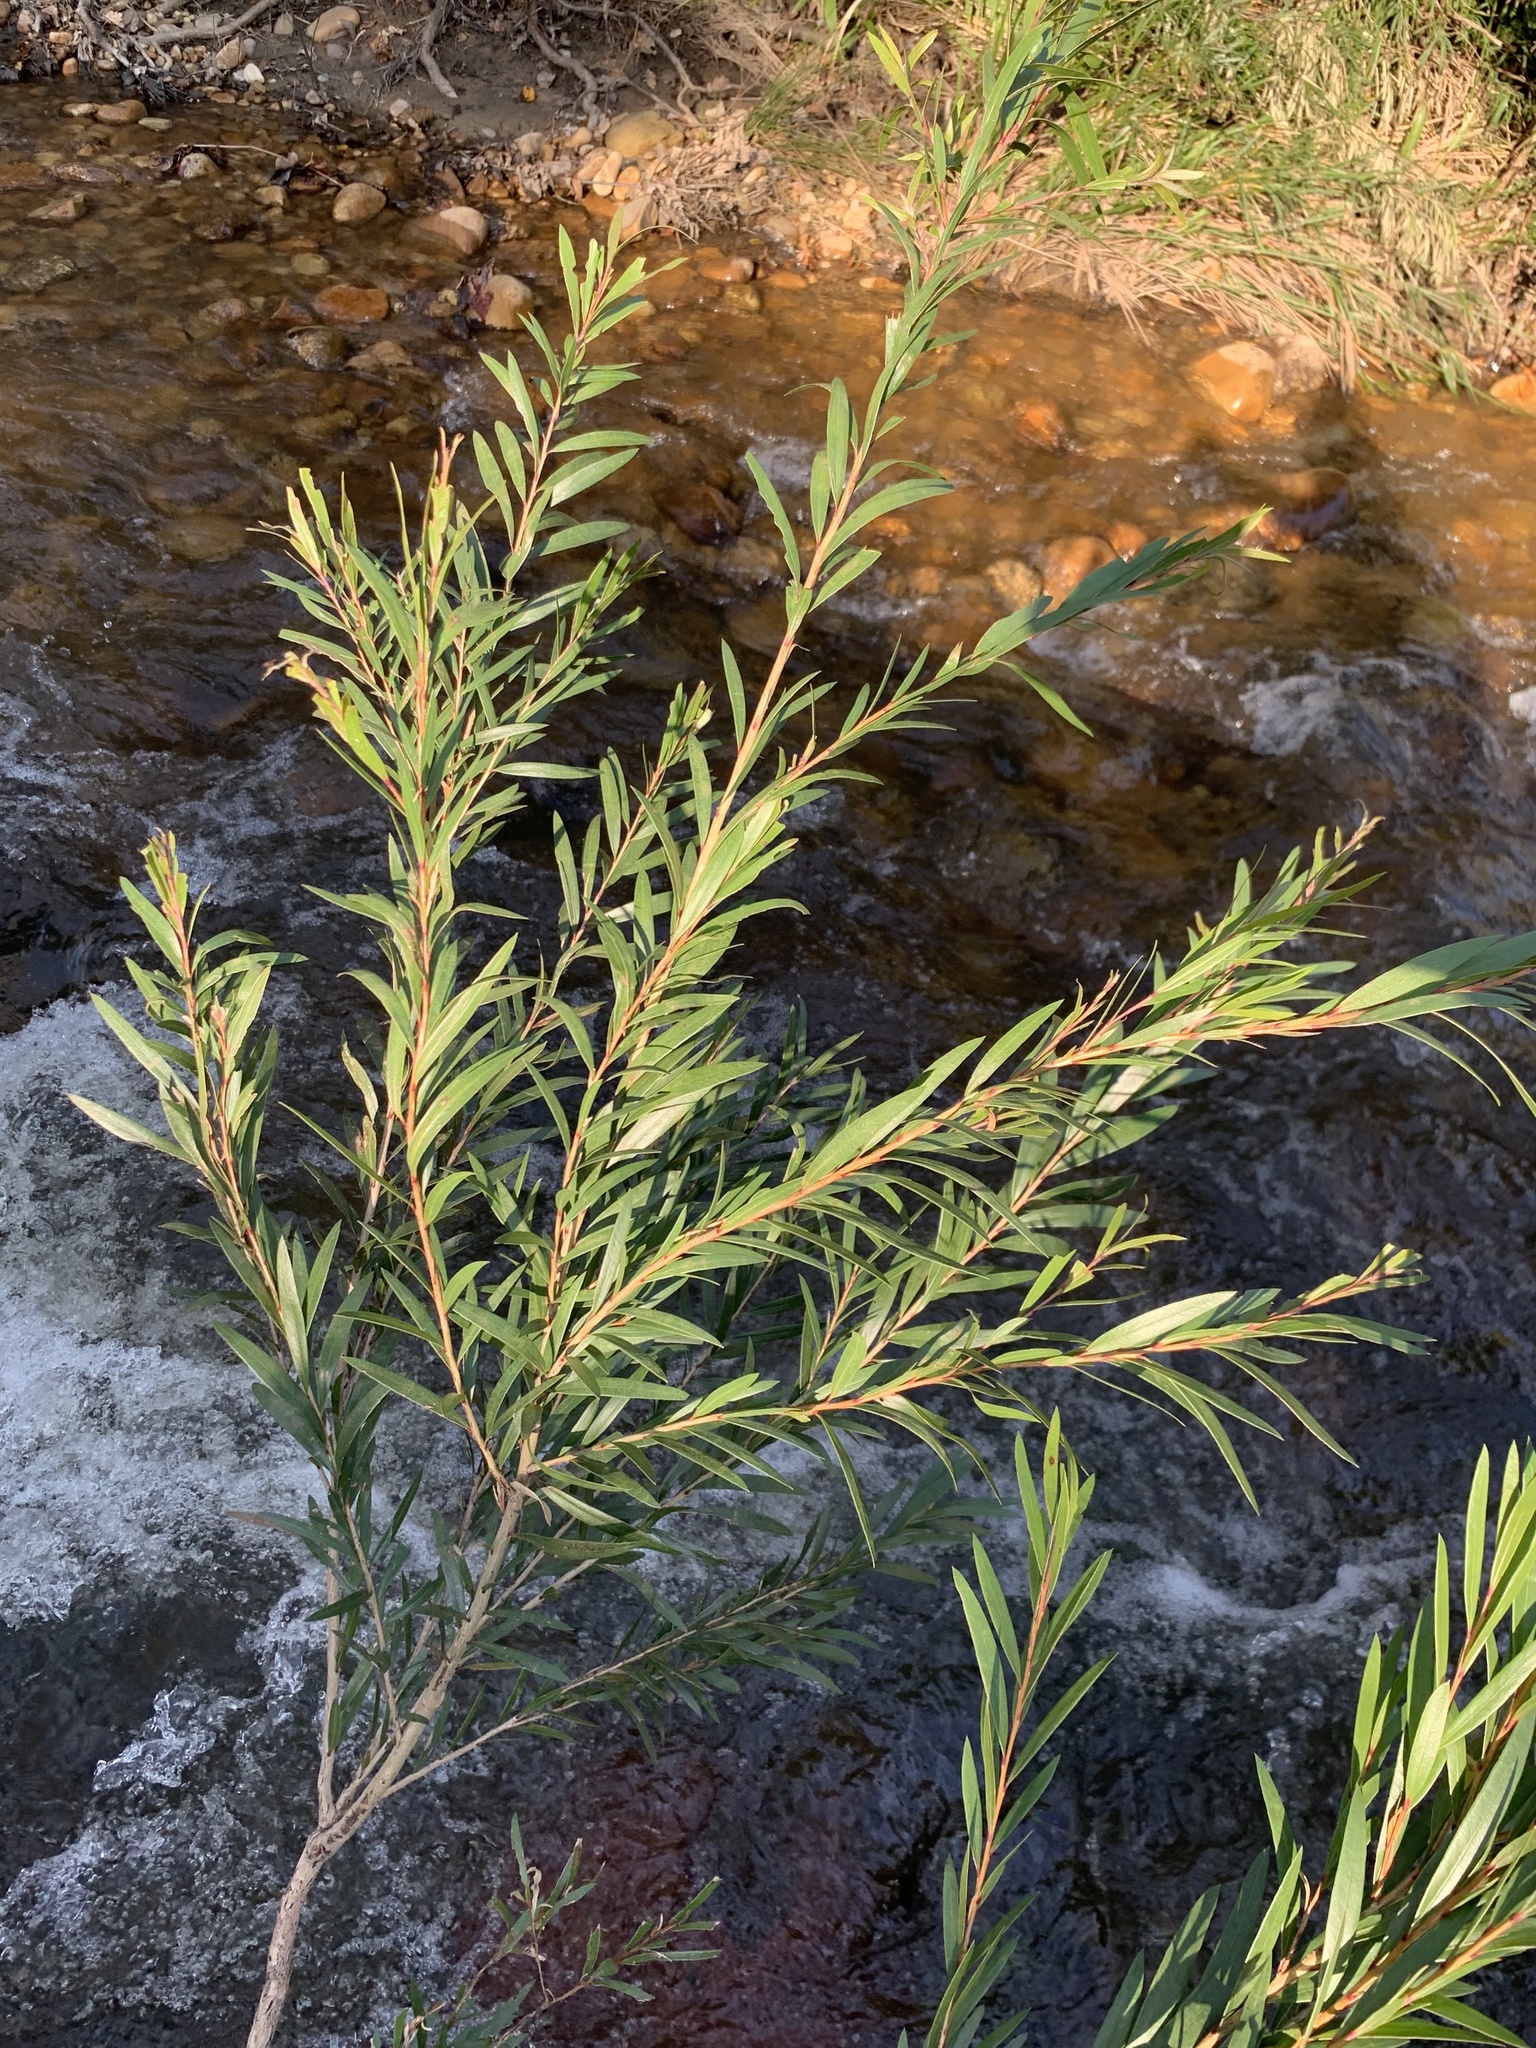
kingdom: Plantae
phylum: Tracheophyta
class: Magnoliopsida
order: Myrtales
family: Myrtaceae
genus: Callistemon
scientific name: Callistemon viminalis
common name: Drooping bottlebrush
